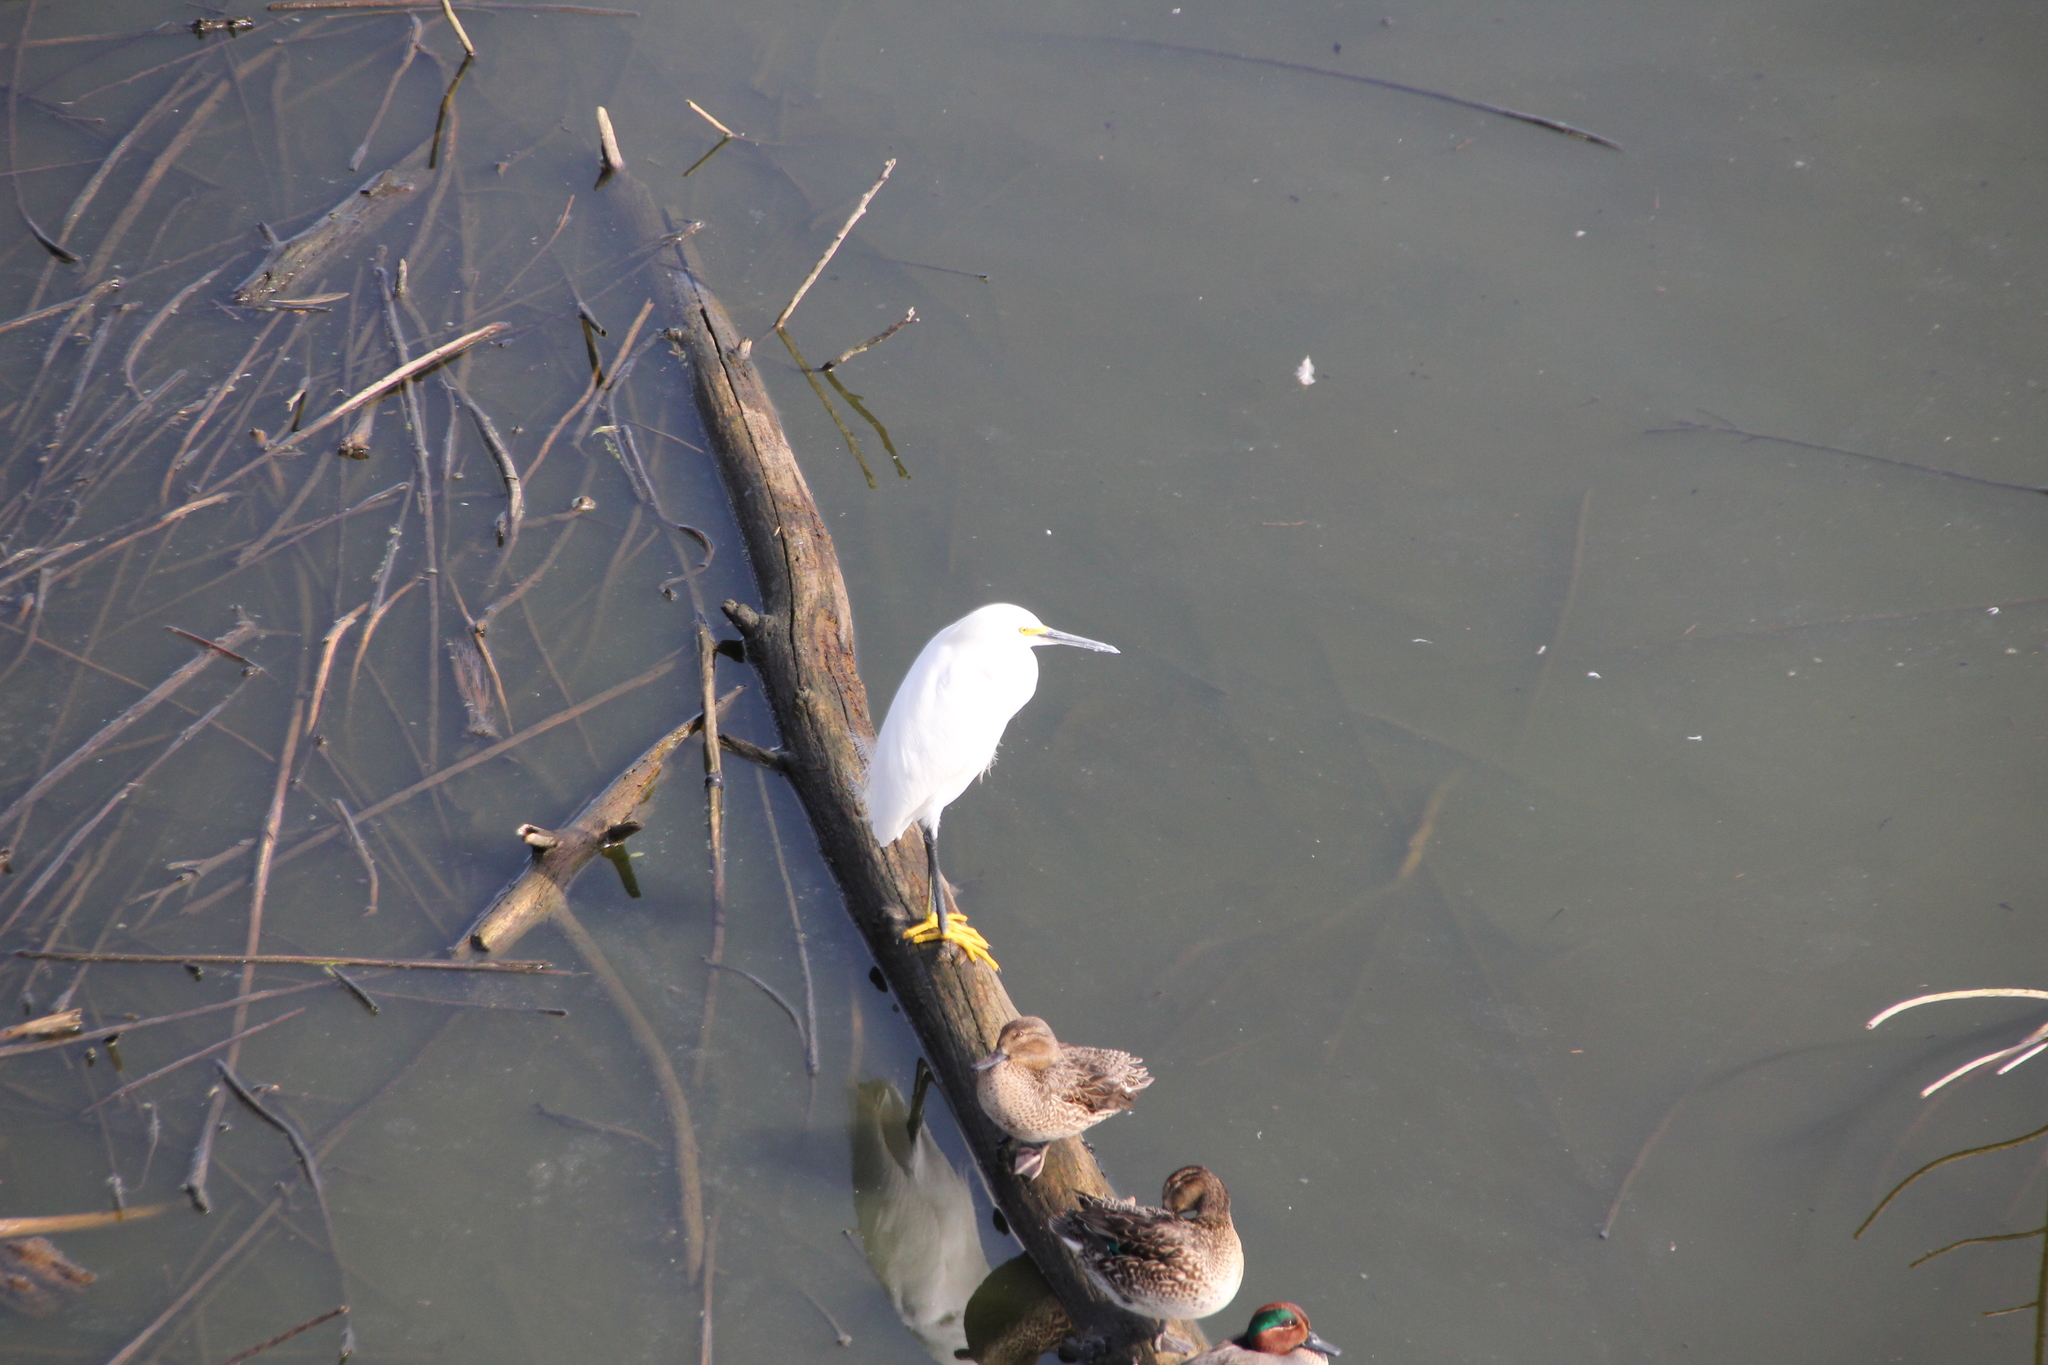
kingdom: Animalia
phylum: Chordata
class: Aves
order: Pelecaniformes
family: Ardeidae
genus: Egretta
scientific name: Egretta thula
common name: Snowy egret
